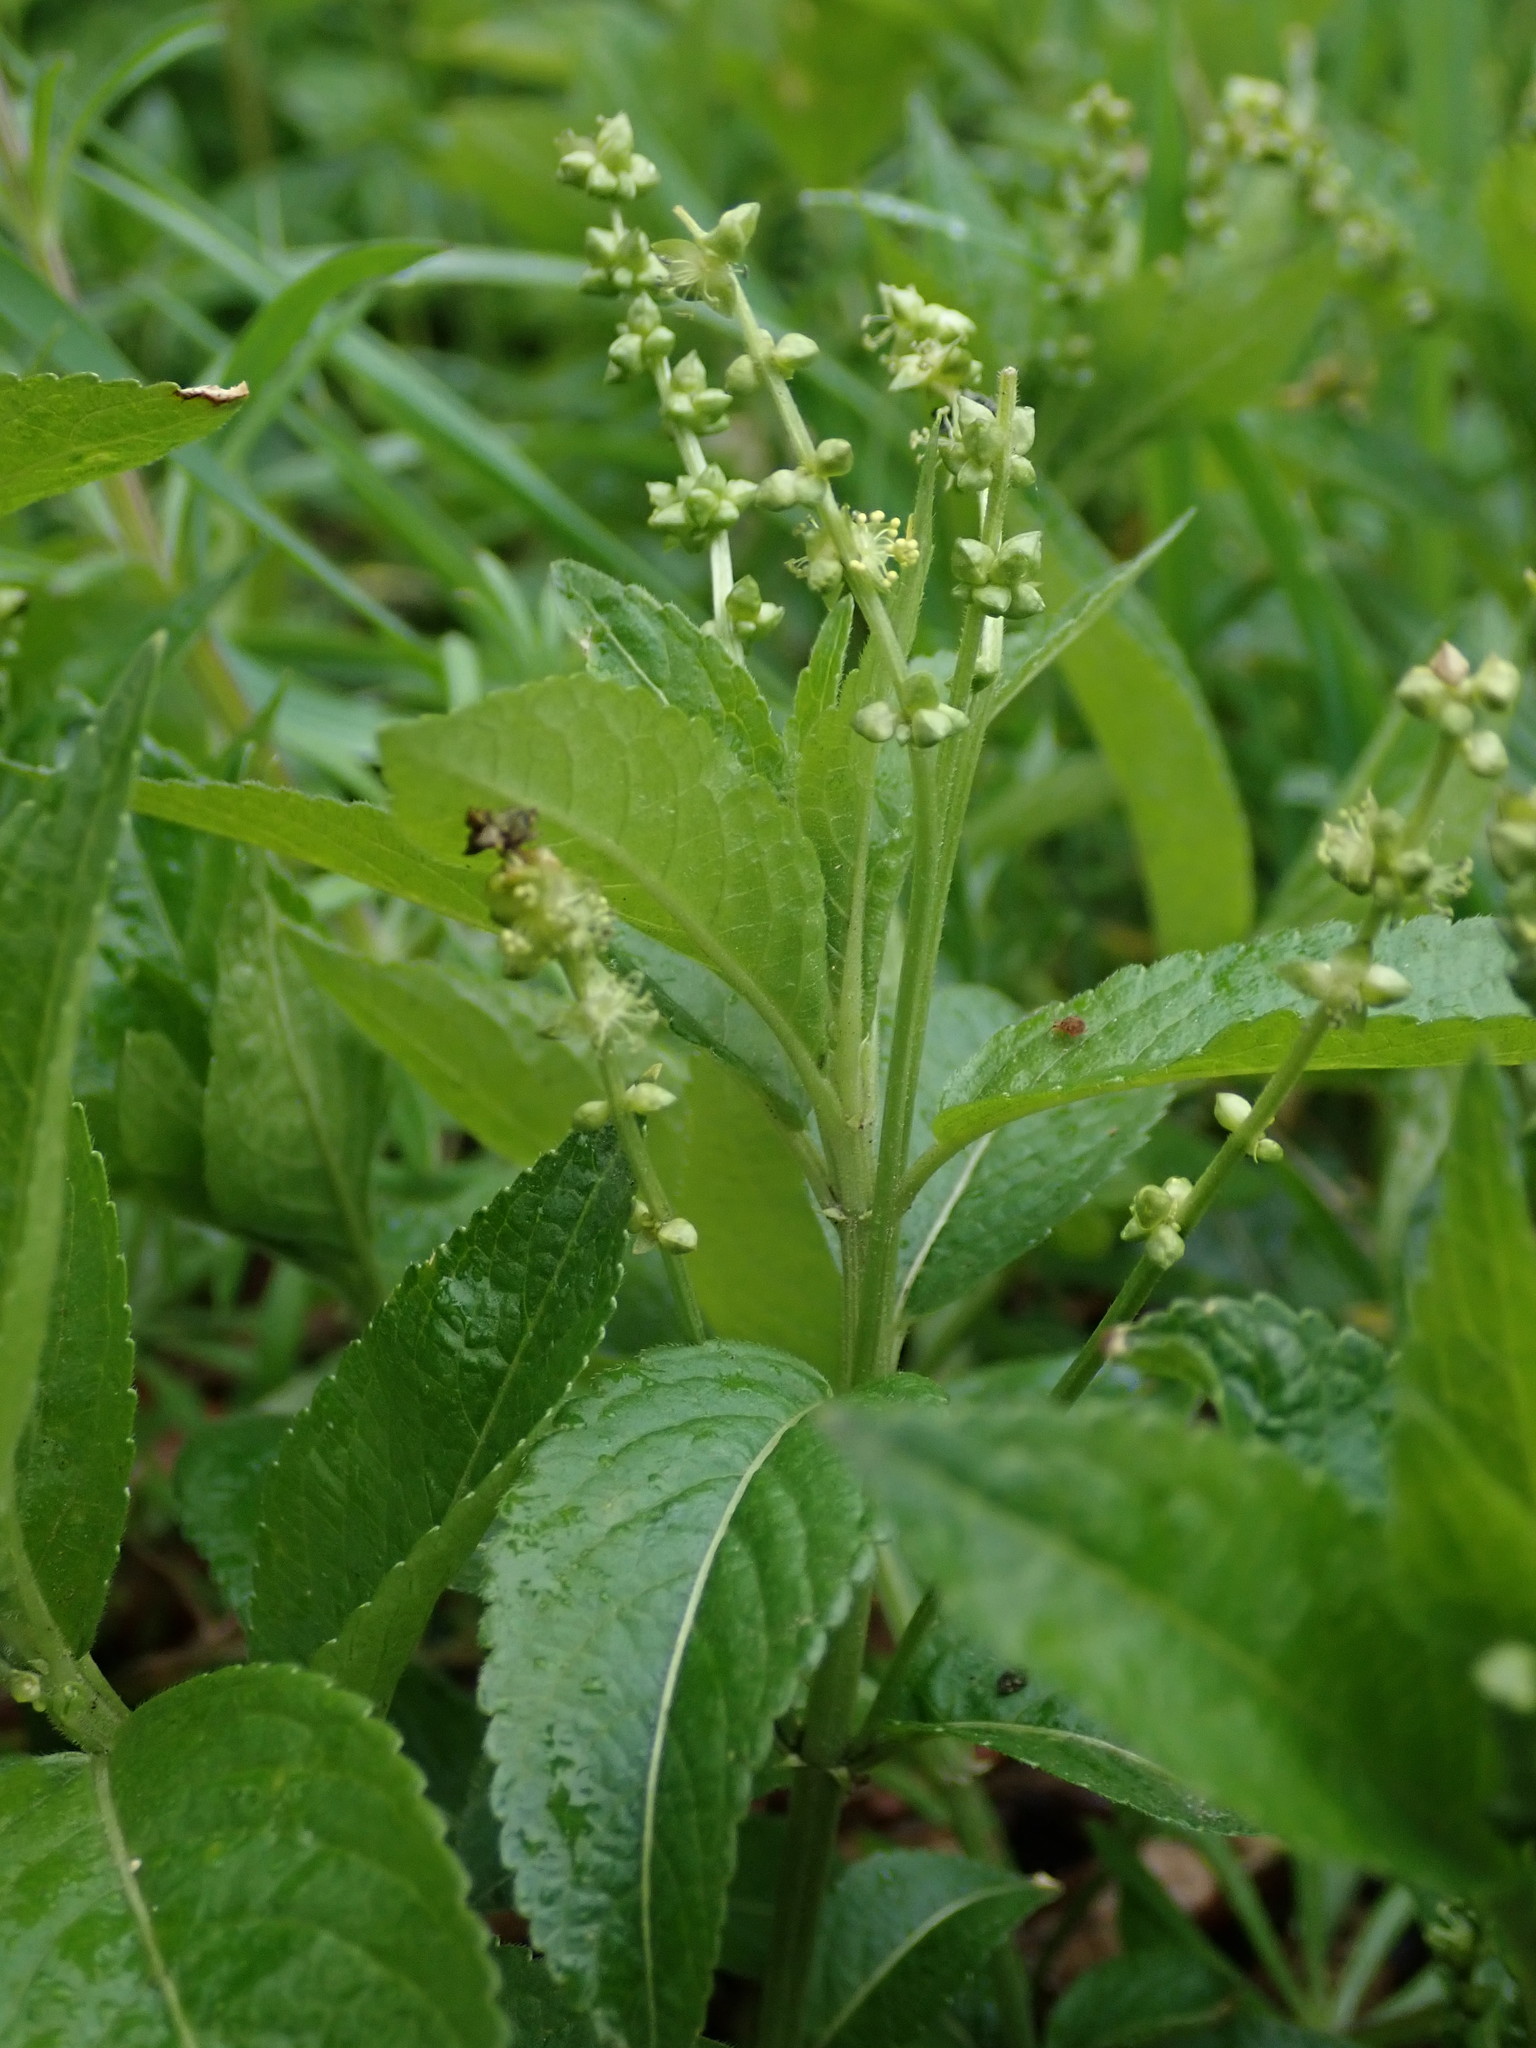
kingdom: Plantae
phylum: Tracheophyta
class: Magnoliopsida
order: Malpighiales
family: Euphorbiaceae
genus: Mercurialis
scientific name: Mercurialis perennis
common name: Dog mercury
